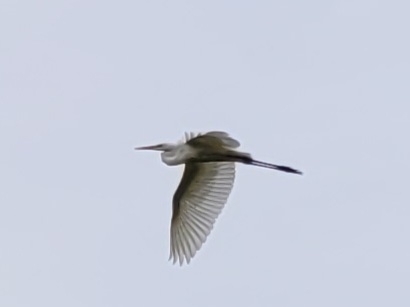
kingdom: Animalia
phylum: Chordata
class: Aves
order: Pelecaniformes
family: Ardeidae
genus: Ardea
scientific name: Ardea alba
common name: Great egret
